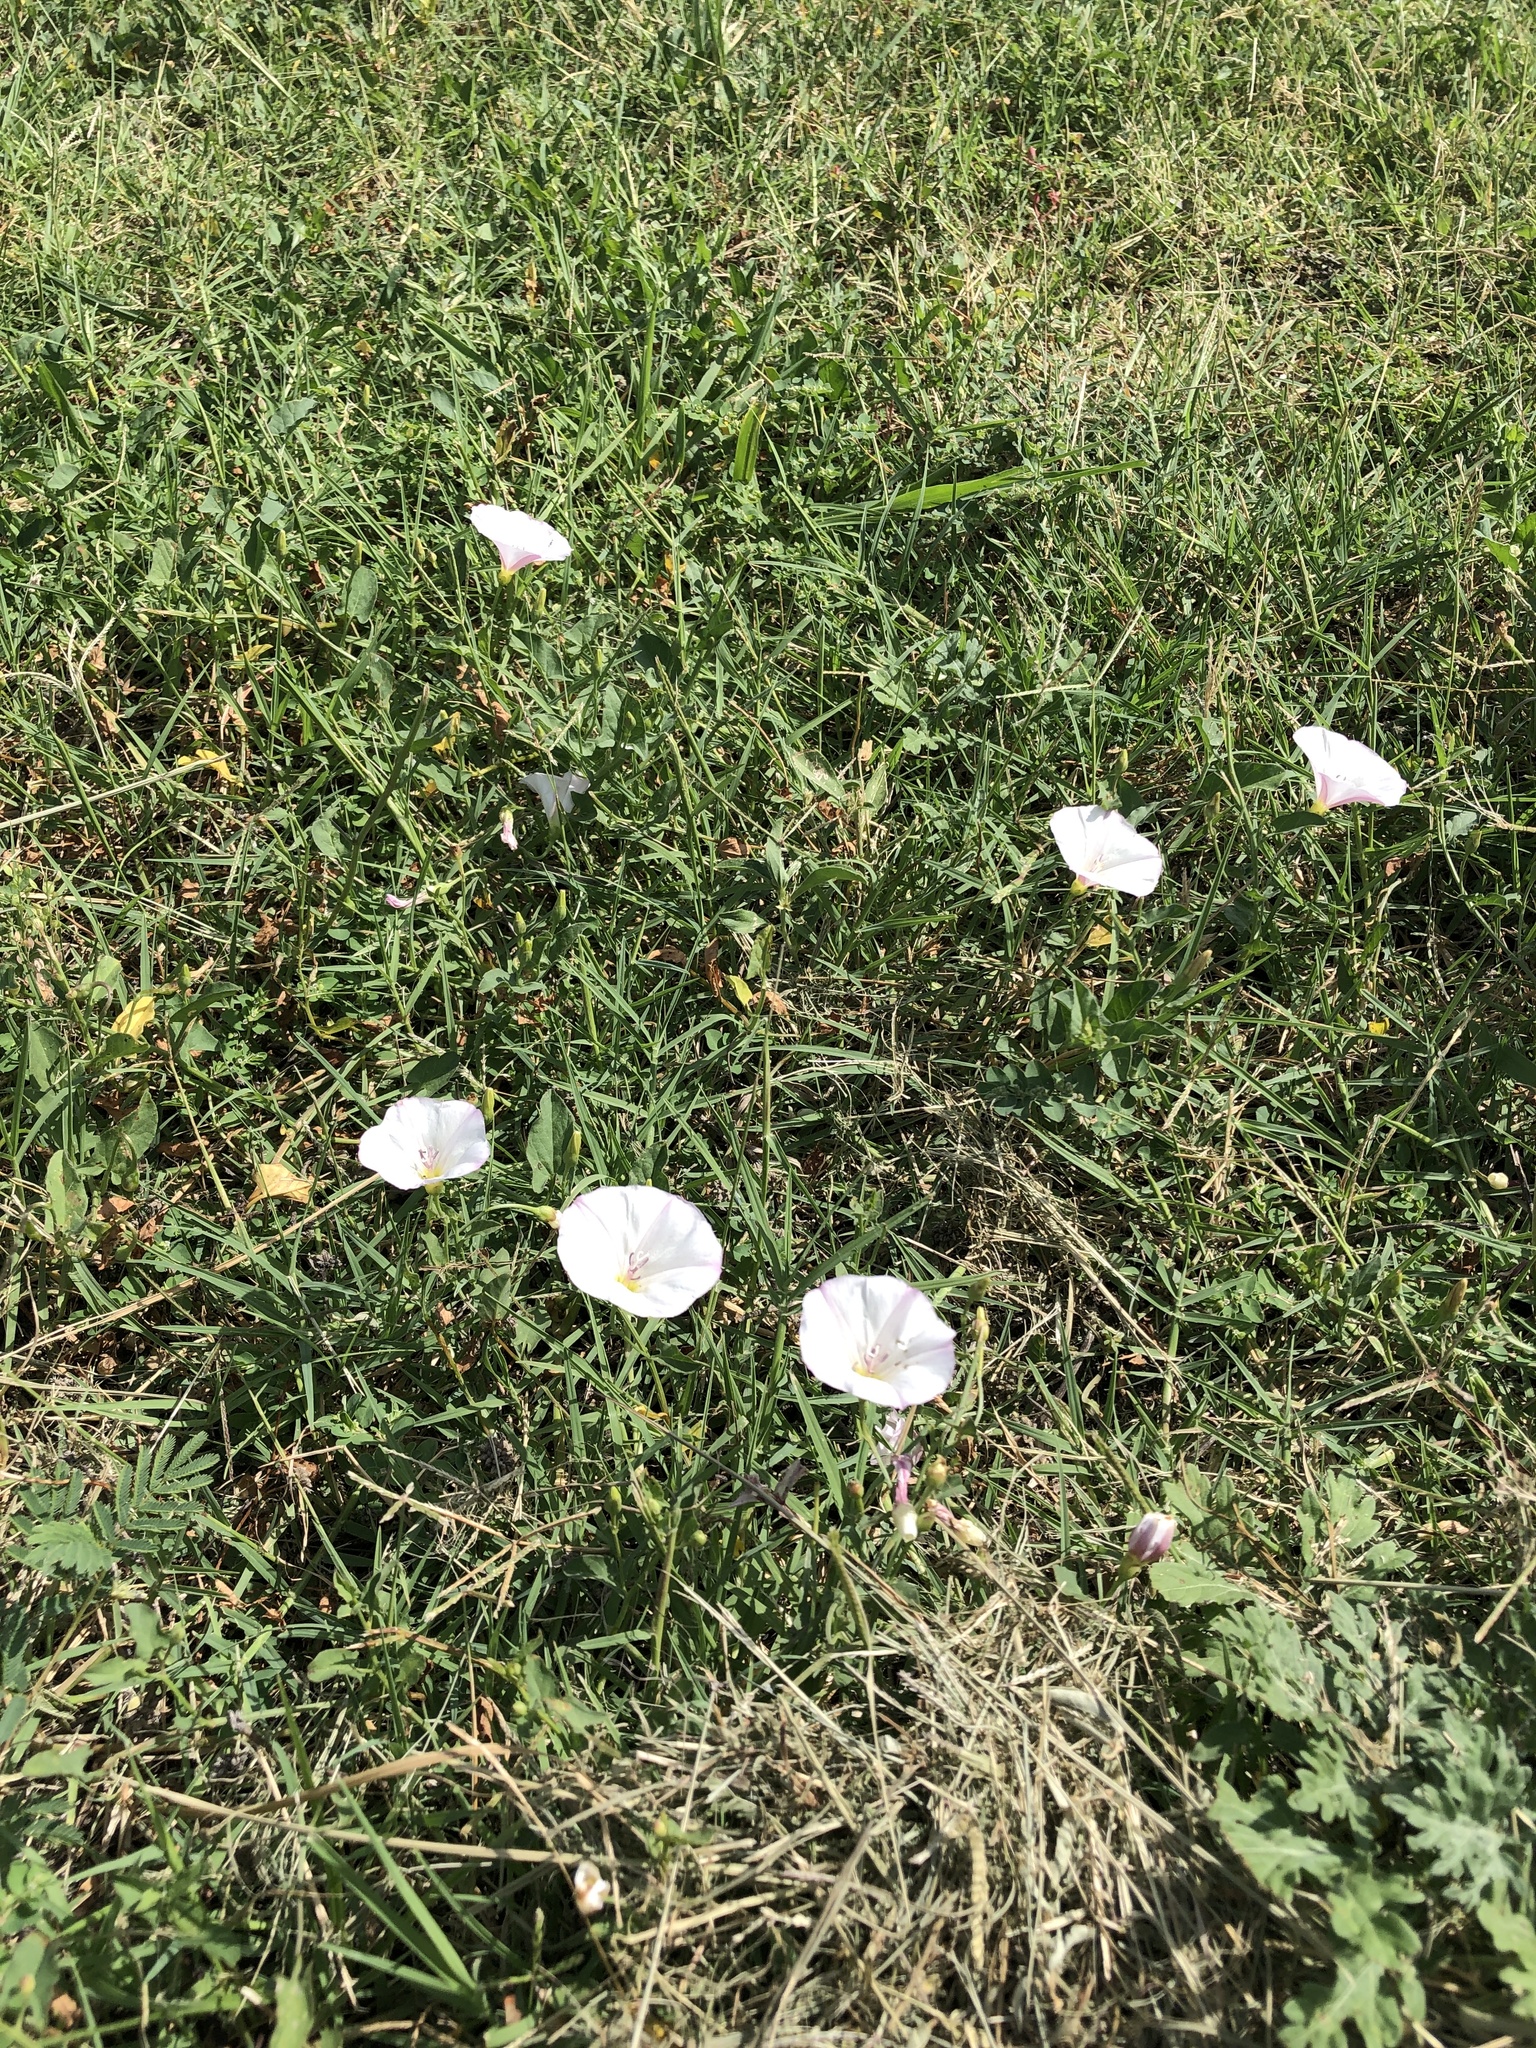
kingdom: Plantae
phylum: Tracheophyta
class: Magnoliopsida
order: Solanales
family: Convolvulaceae
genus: Convolvulus
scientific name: Convolvulus arvensis
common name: Field bindweed
